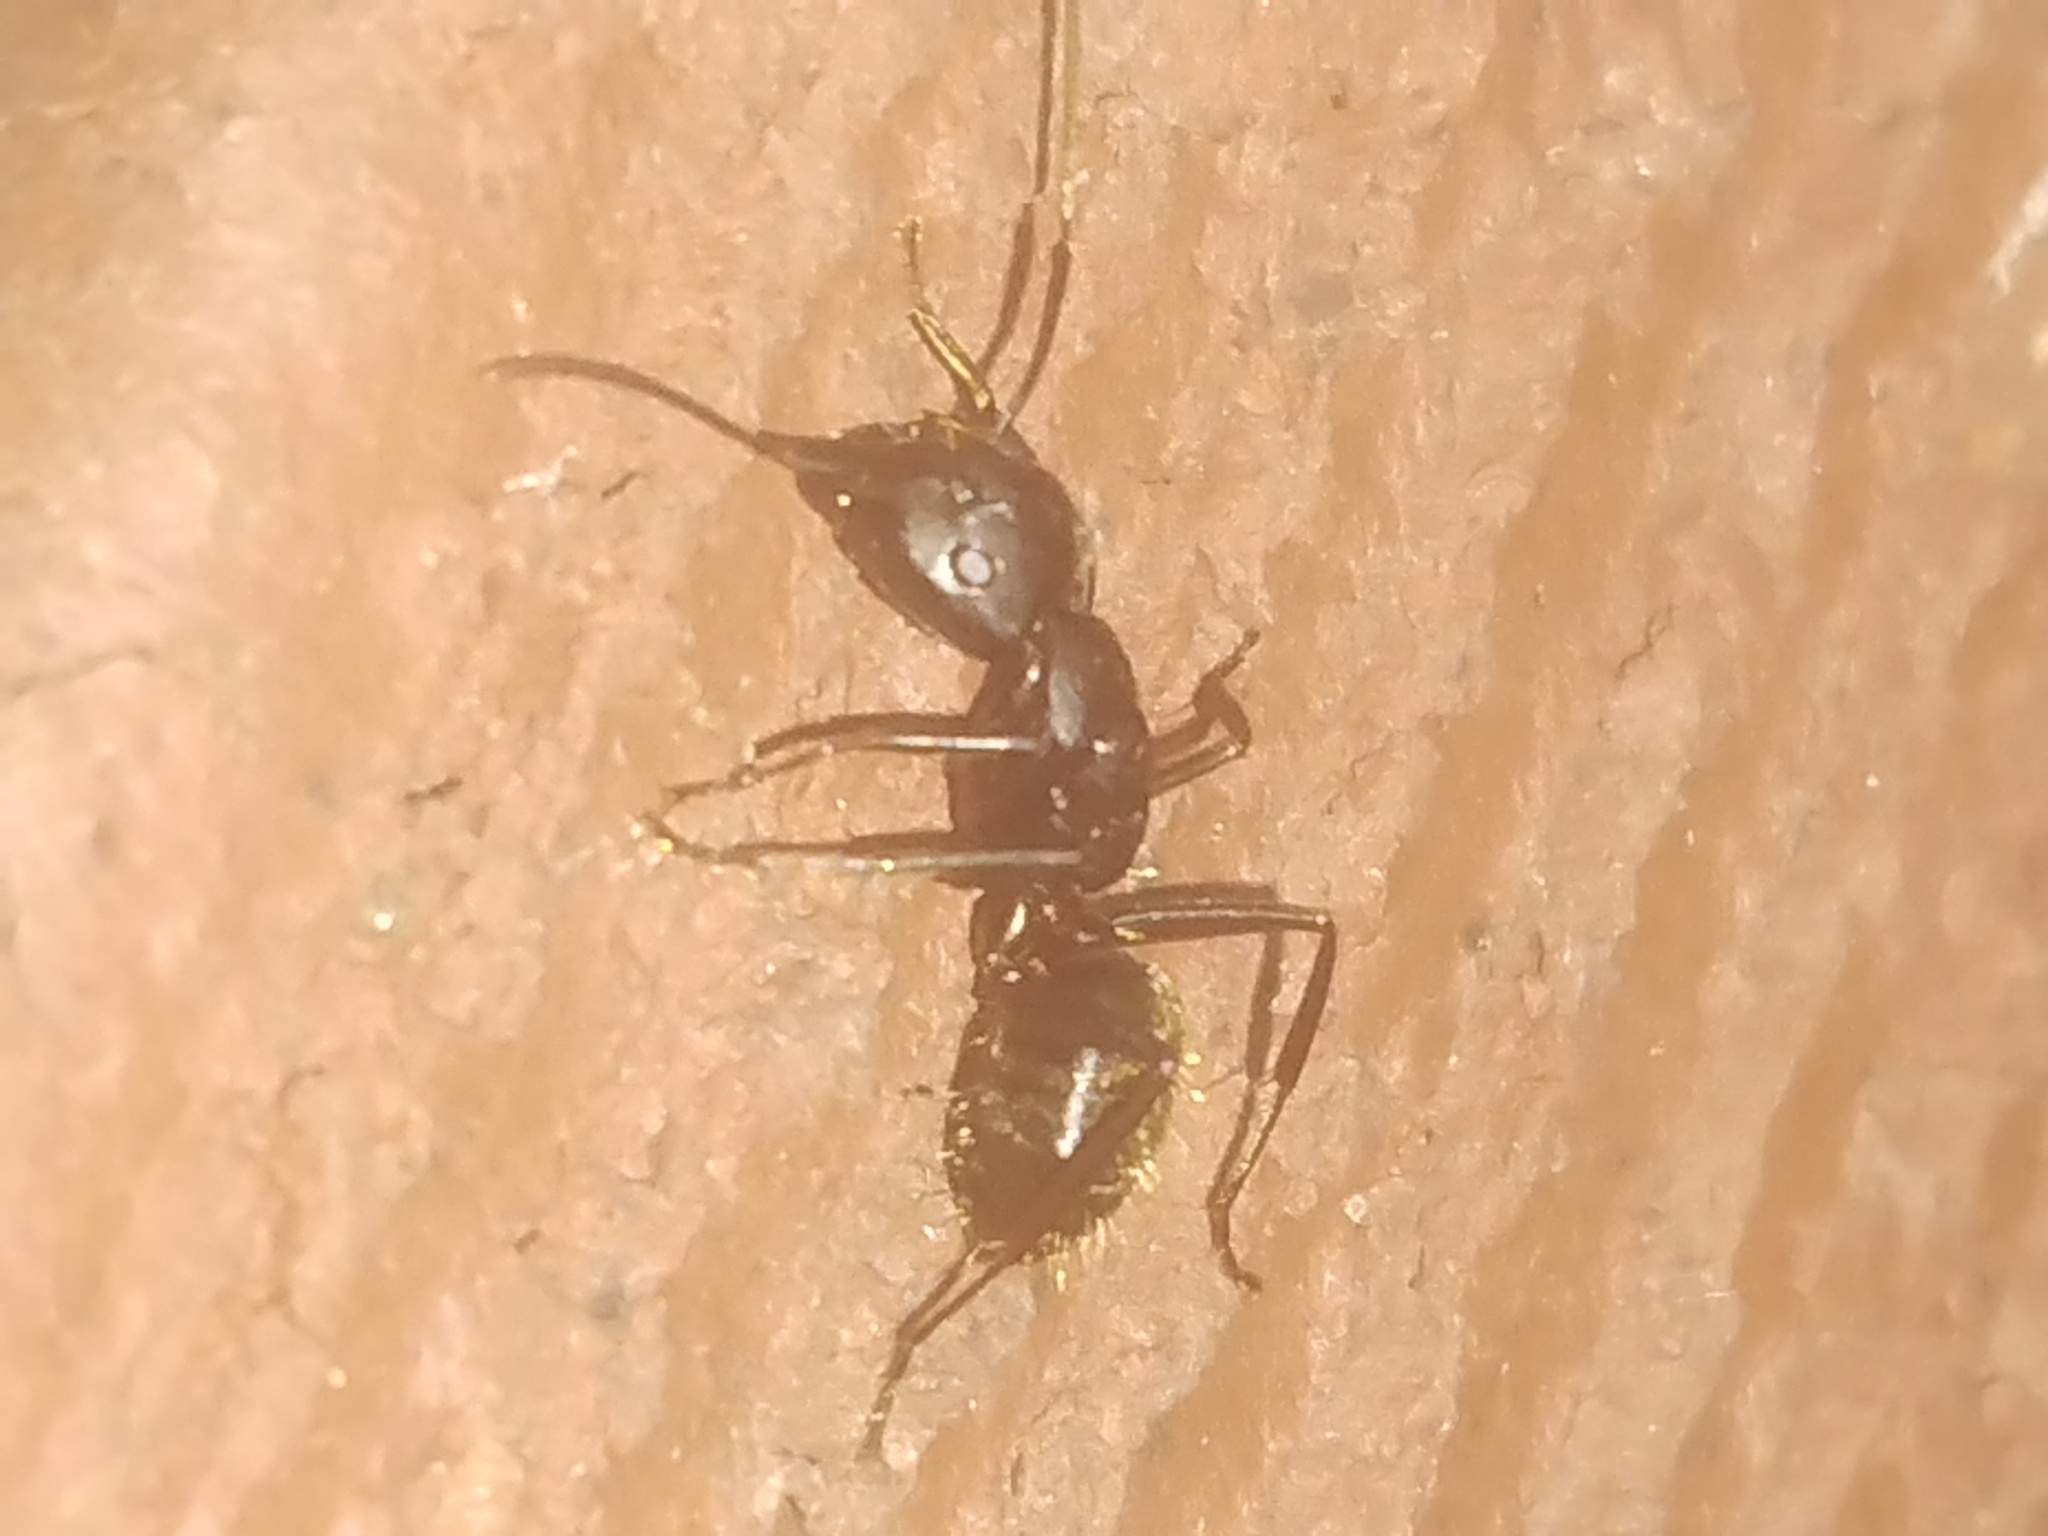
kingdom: Animalia
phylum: Arthropoda
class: Insecta
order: Hymenoptera
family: Formicidae
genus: Camponotus
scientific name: Camponotus pennsylvanicus
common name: Black carpenter ant
